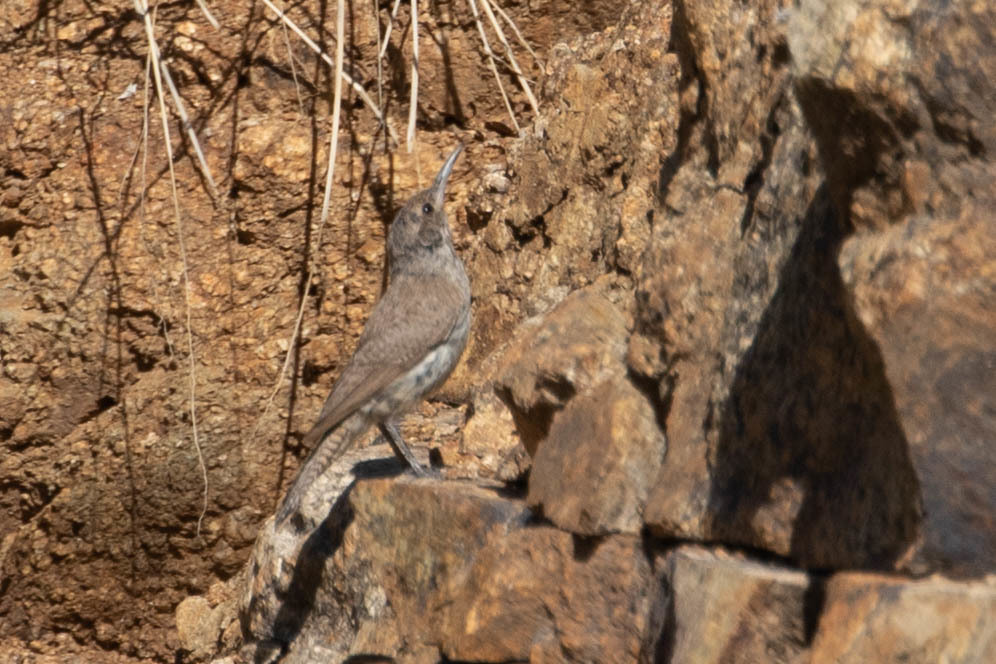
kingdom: Animalia
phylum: Chordata
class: Aves
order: Passeriformes
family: Troglodytidae
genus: Salpinctes
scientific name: Salpinctes obsoletus
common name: Rock wren
